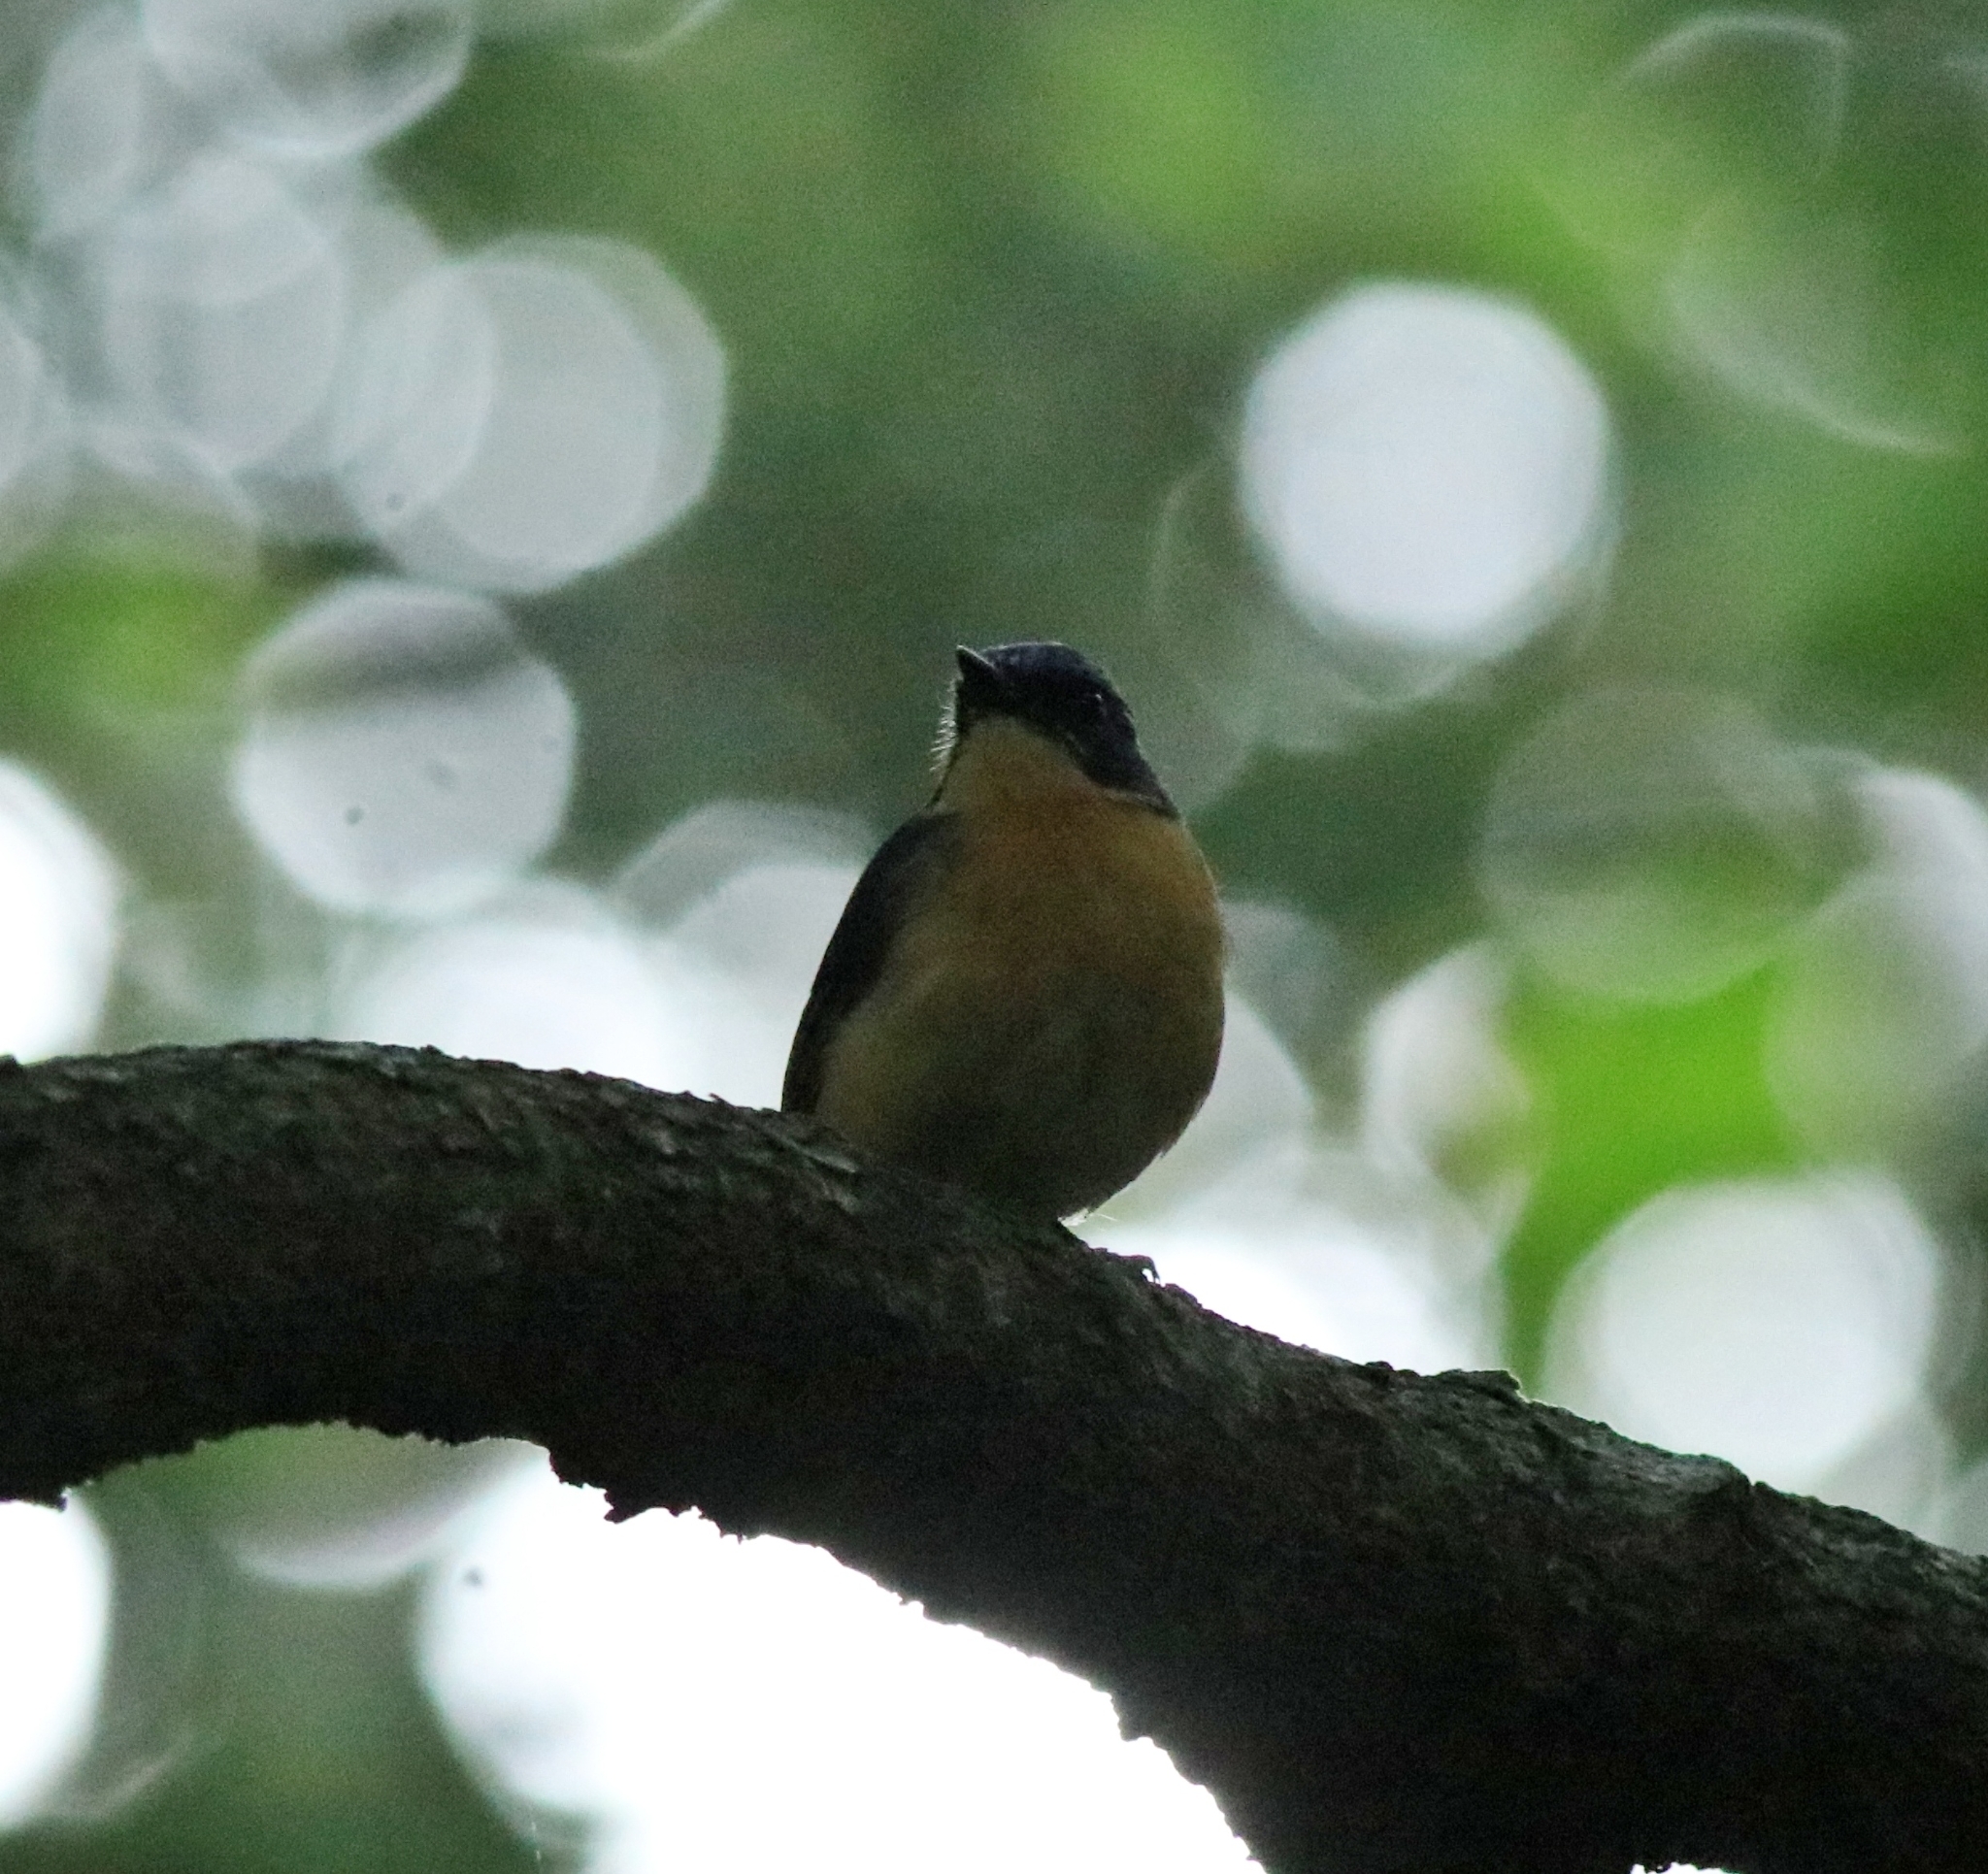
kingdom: Animalia
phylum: Chordata
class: Aves
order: Passeriformes
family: Muscicapidae
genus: Cyornis
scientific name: Cyornis tickelliae
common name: Tickell's blue flycatcher
